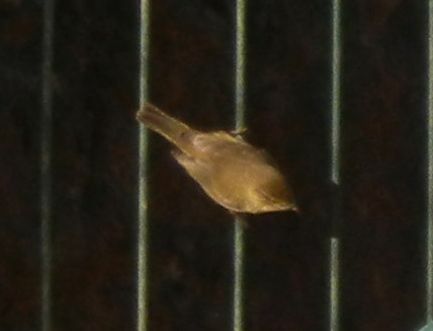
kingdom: Animalia
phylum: Chordata
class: Aves
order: Passeriformes
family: Phylloscopidae
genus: Phylloscopus
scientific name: Phylloscopus collybita
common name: Common chiffchaff
